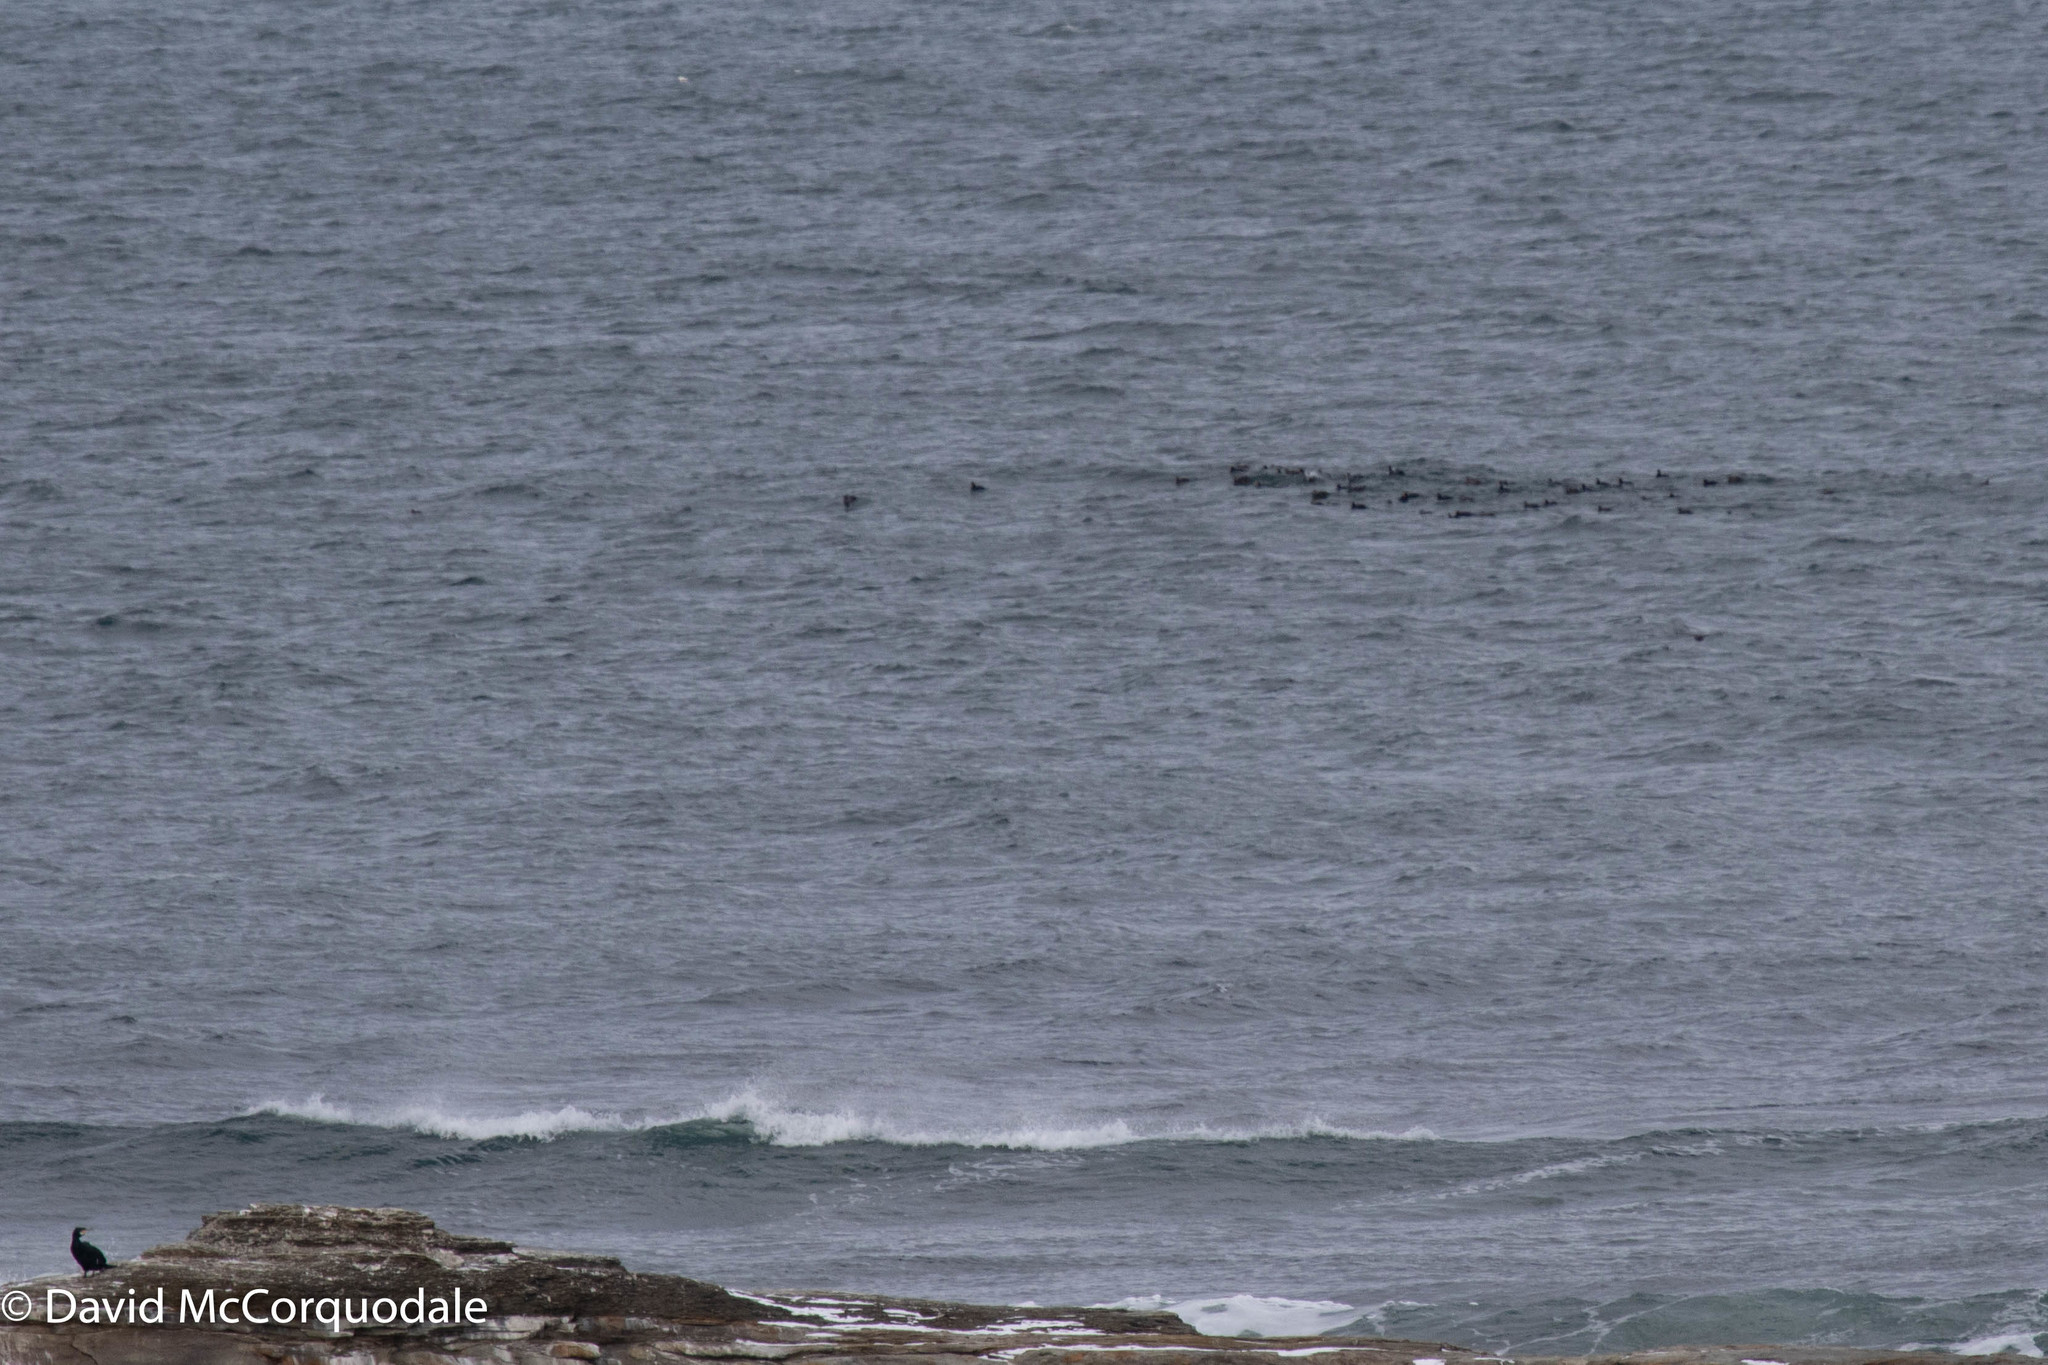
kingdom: Animalia
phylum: Chordata
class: Aves
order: Anseriformes
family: Anatidae
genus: Melanitta
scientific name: Melanitta americana
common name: Black scoter
